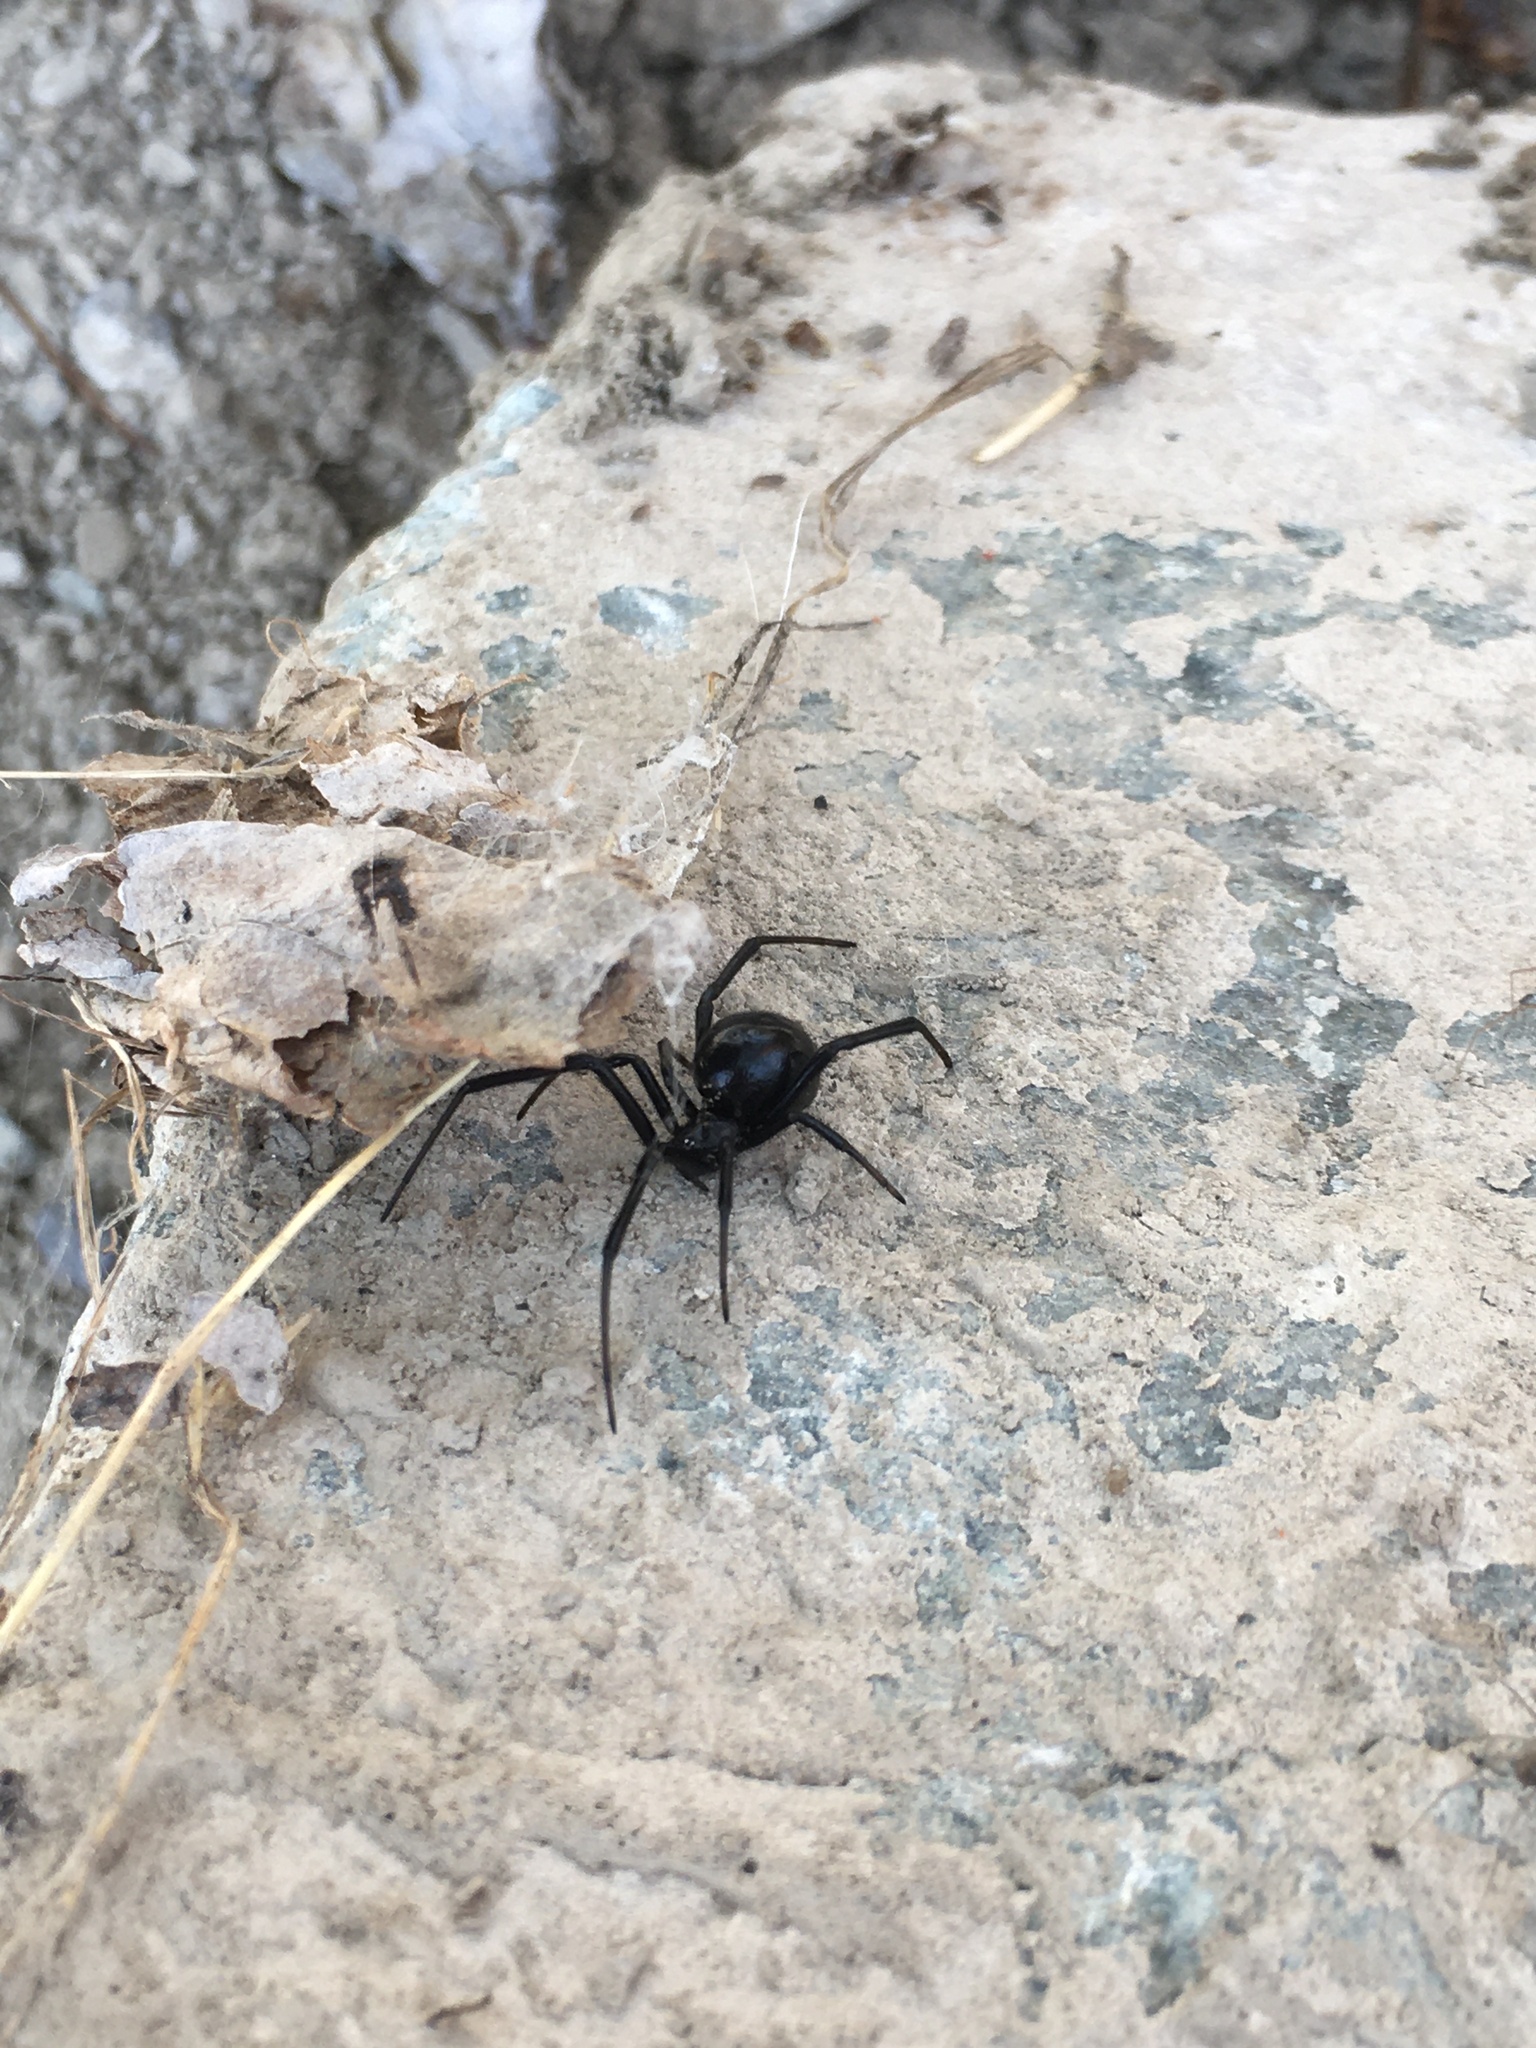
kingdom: Animalia
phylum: Arthropoda
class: Arachnida
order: Araneae
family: Theridiidae
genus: Latrodectus
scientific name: Latrodectus hesperus
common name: Western black widow
